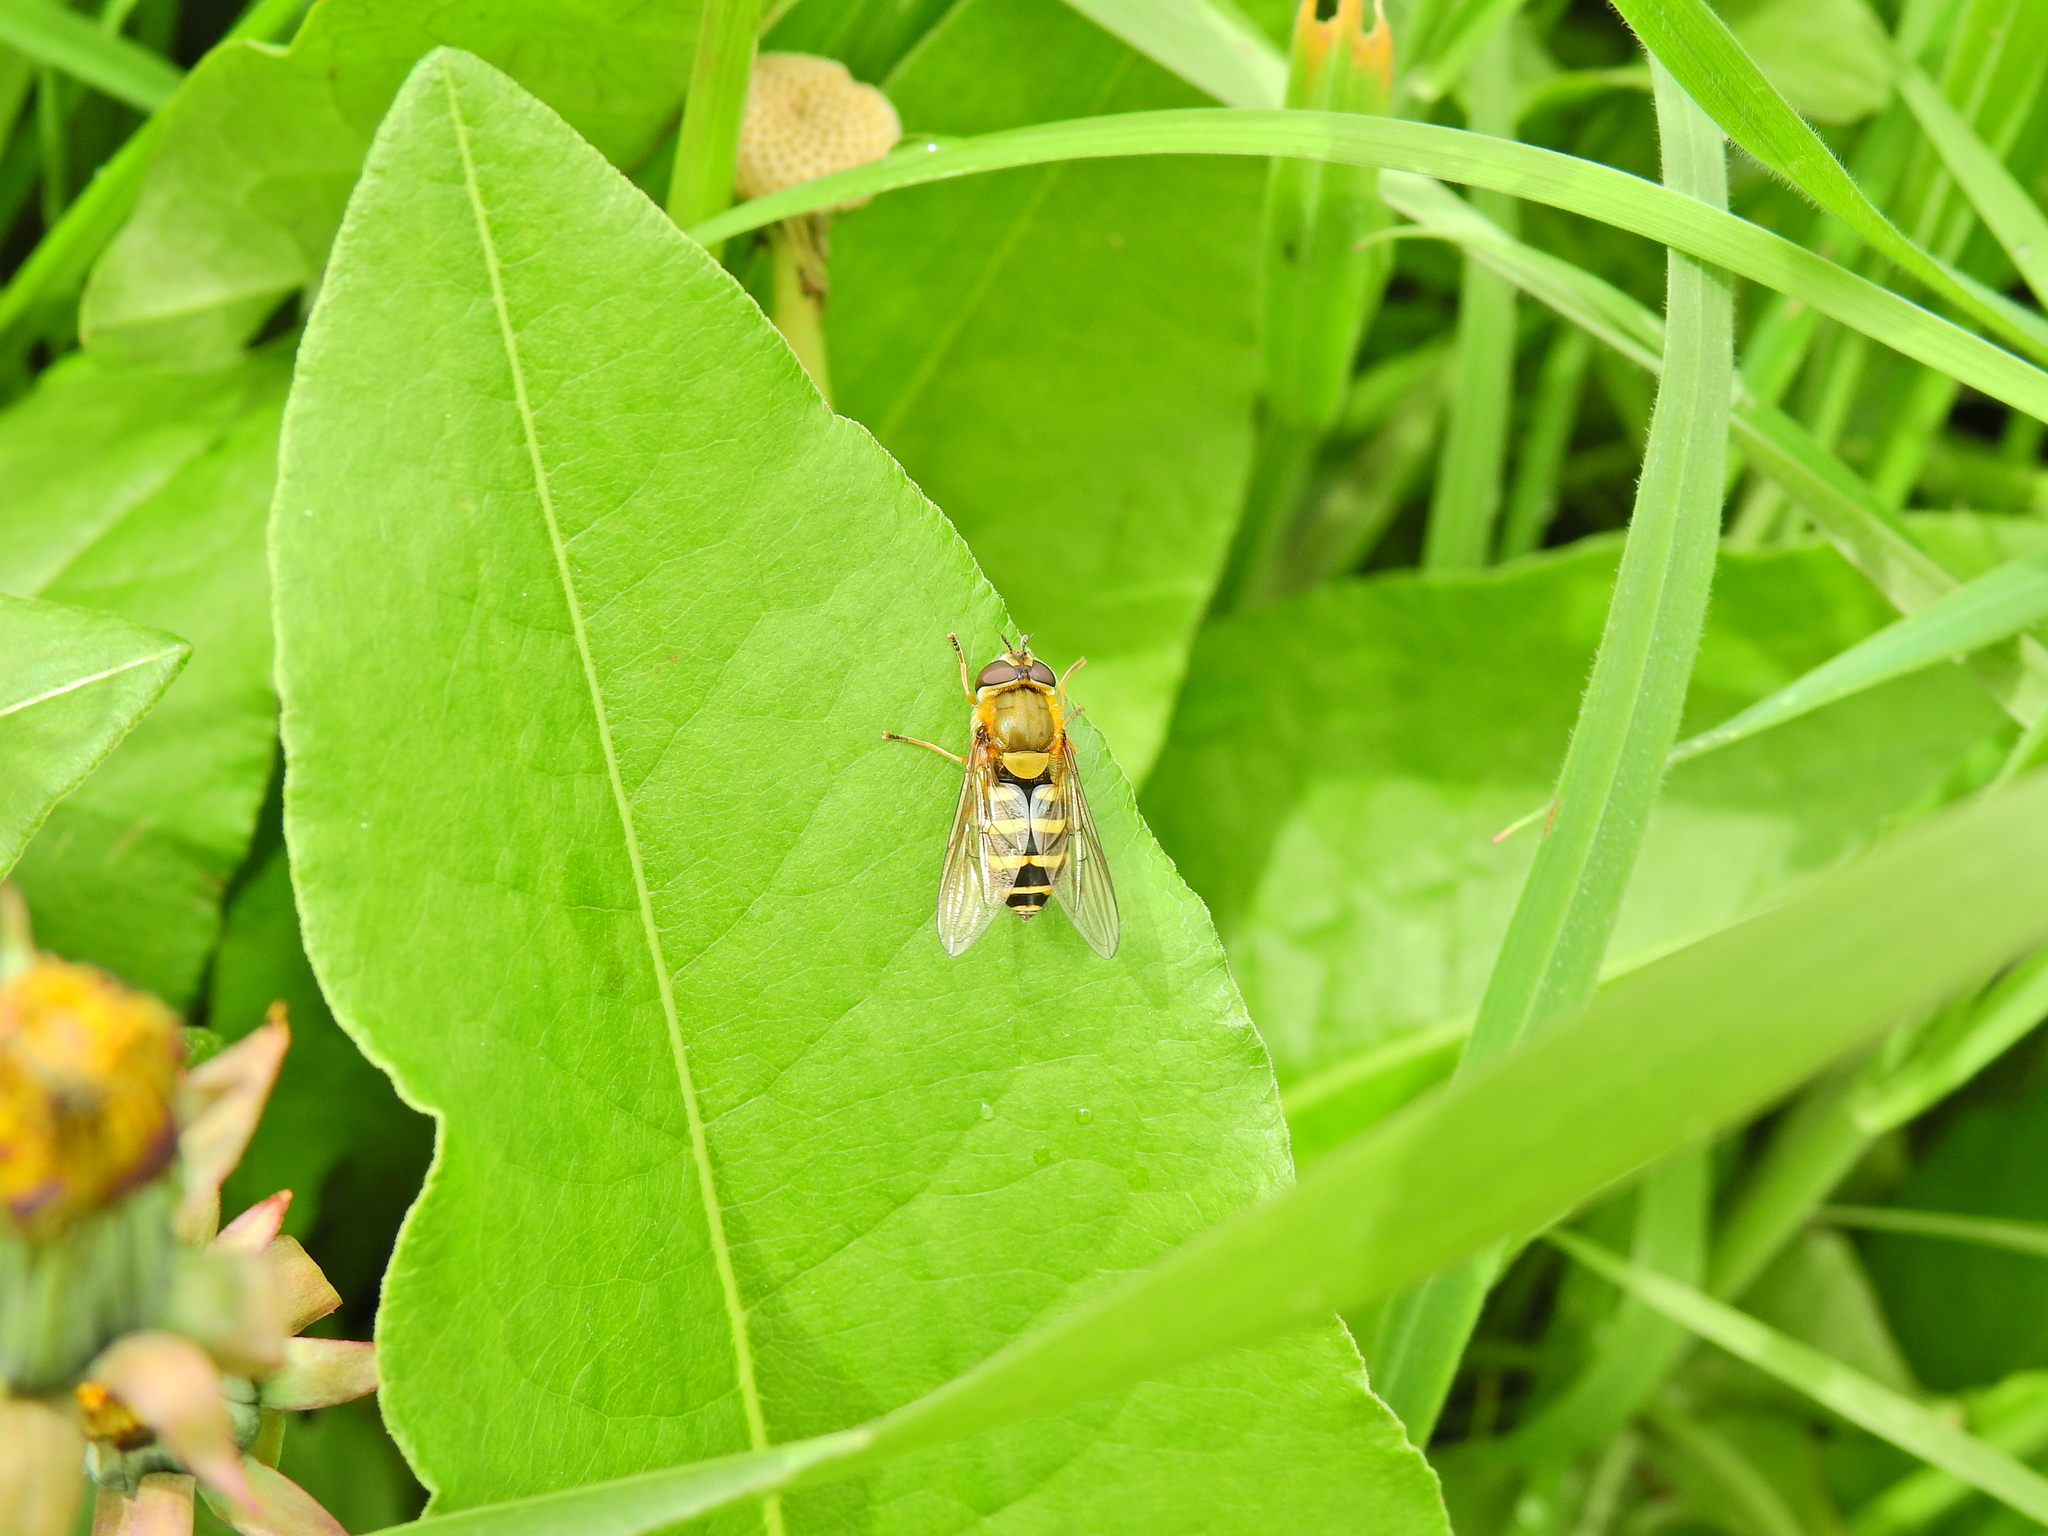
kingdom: Animalia
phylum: Arthropoda
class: Insecta
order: Diptera
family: Syrphidae
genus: Syrphus
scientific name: Syrphus
